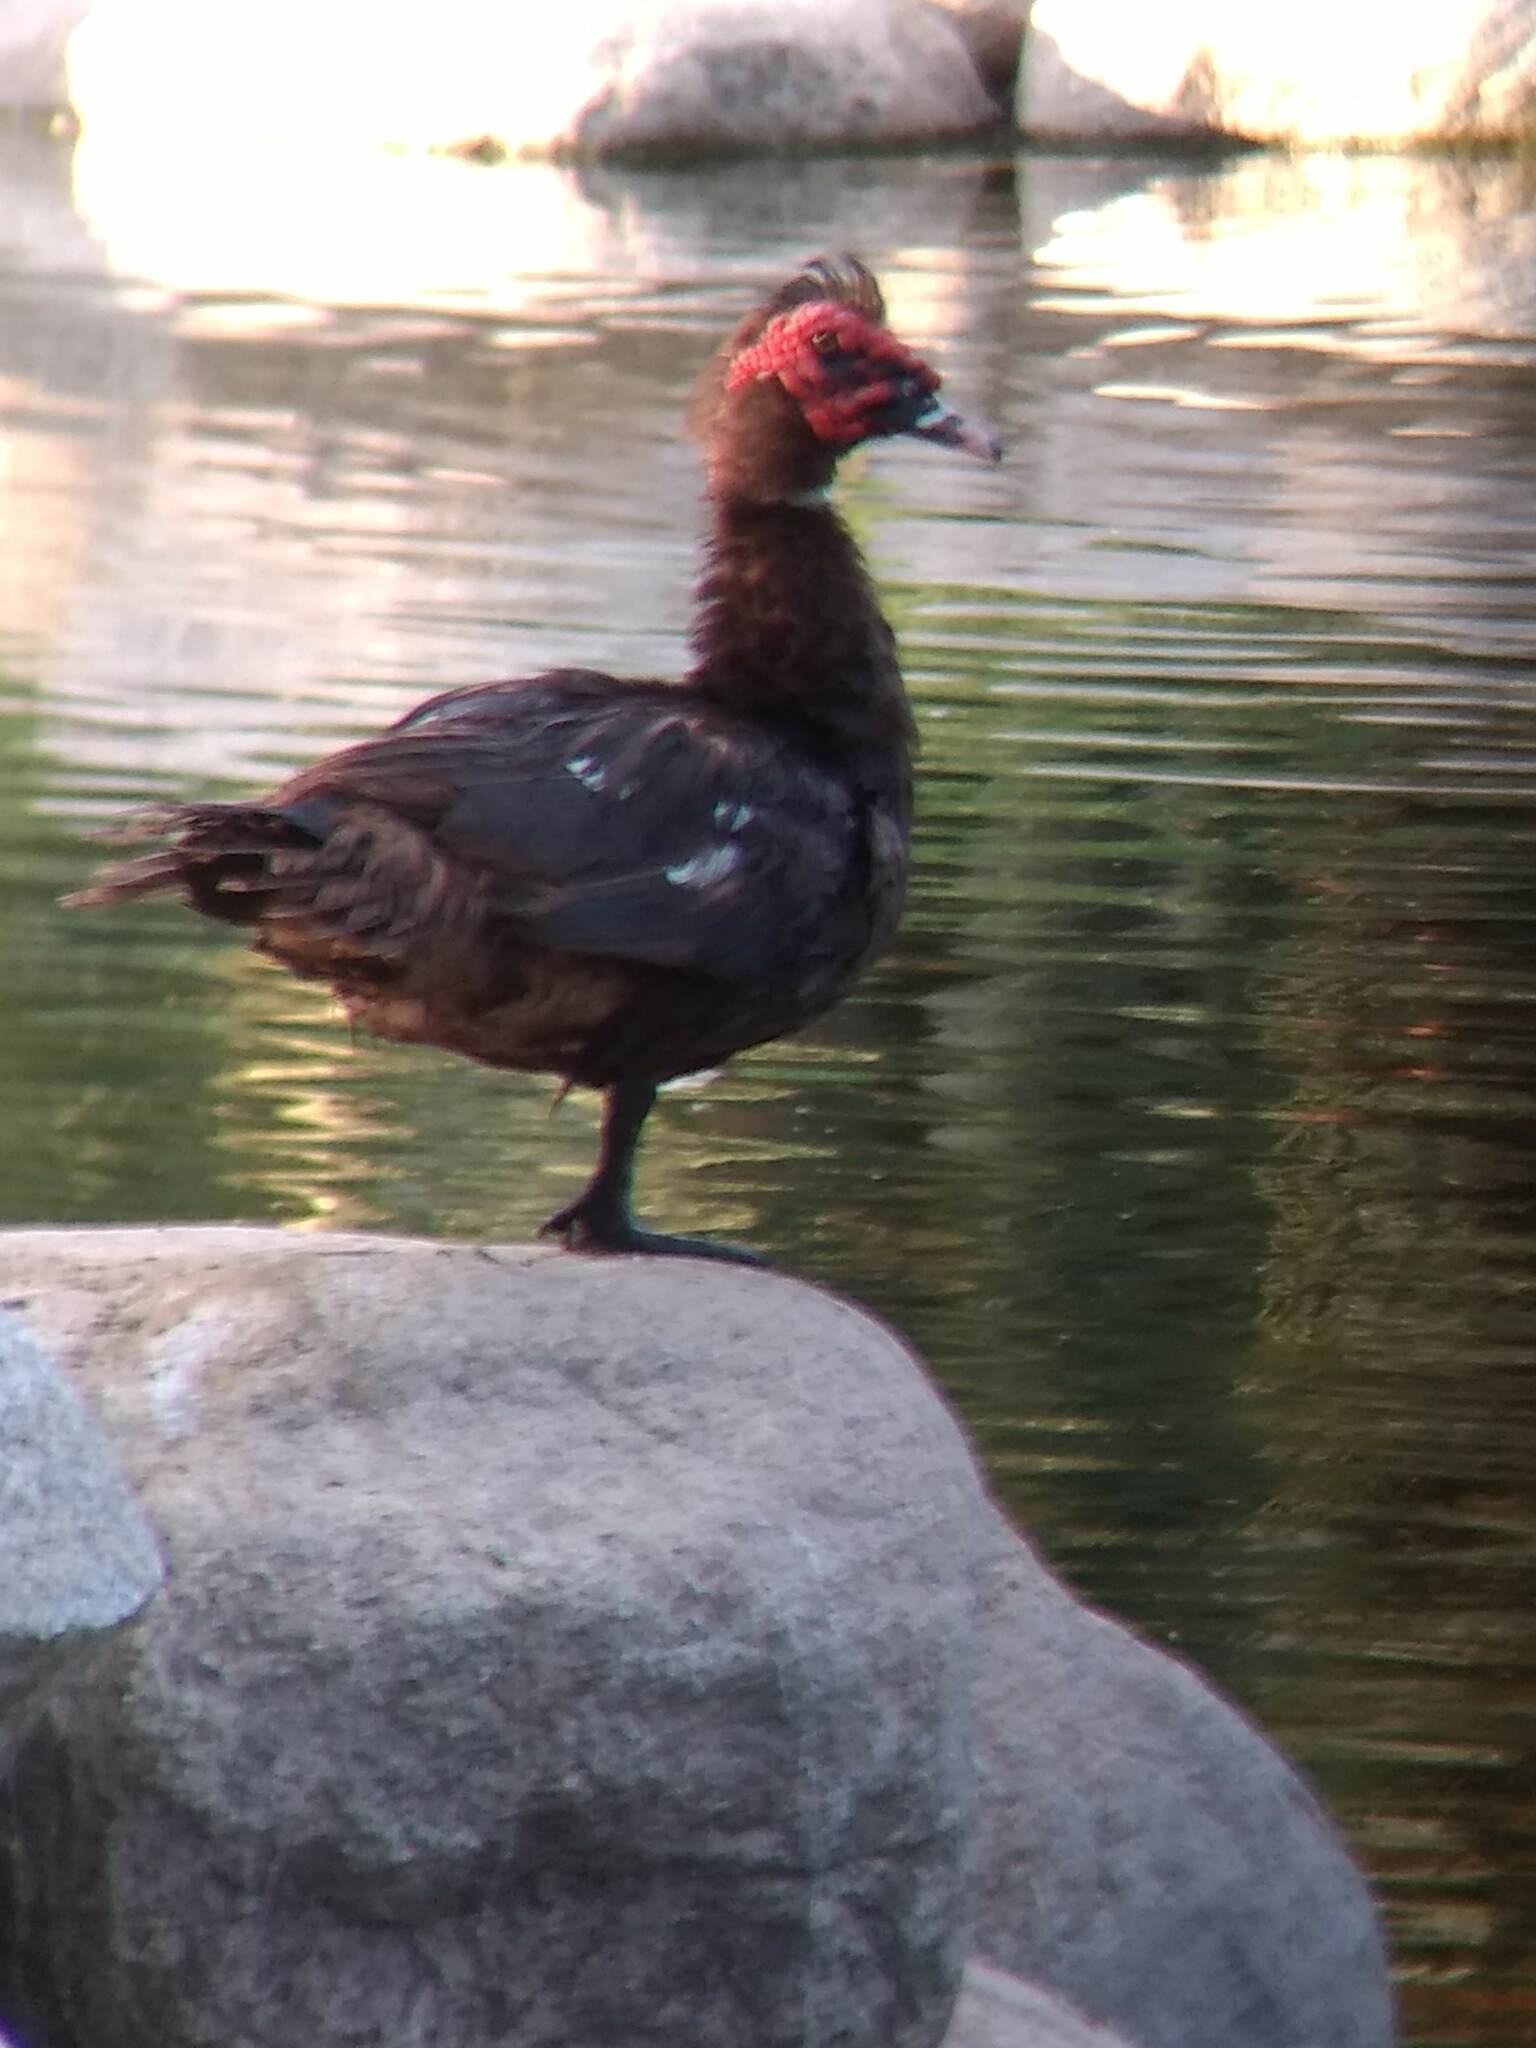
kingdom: Animalia
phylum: Chordata
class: Aves
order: Anseriformes
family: Anatidae
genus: Cairina
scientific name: Cairina moschata
